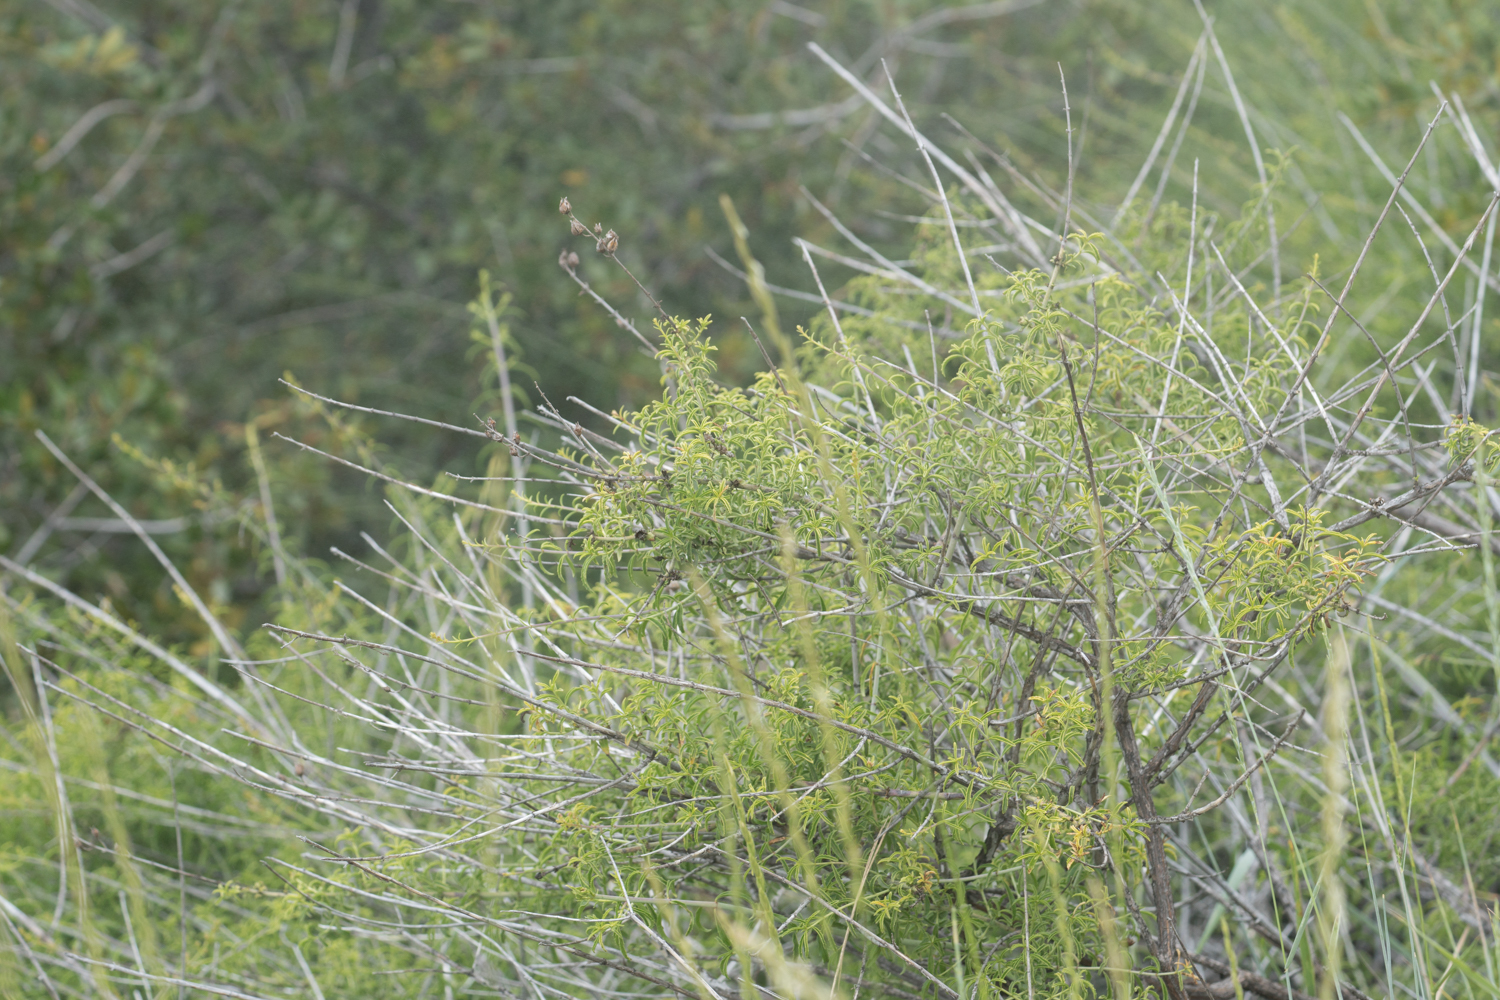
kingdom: Plantae
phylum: Tracheophyta
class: Magnoliopsida
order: Lamiales
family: Plantaginaceae
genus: Keckiella
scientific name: Keckiella ternata
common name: Scarlet keckiella
